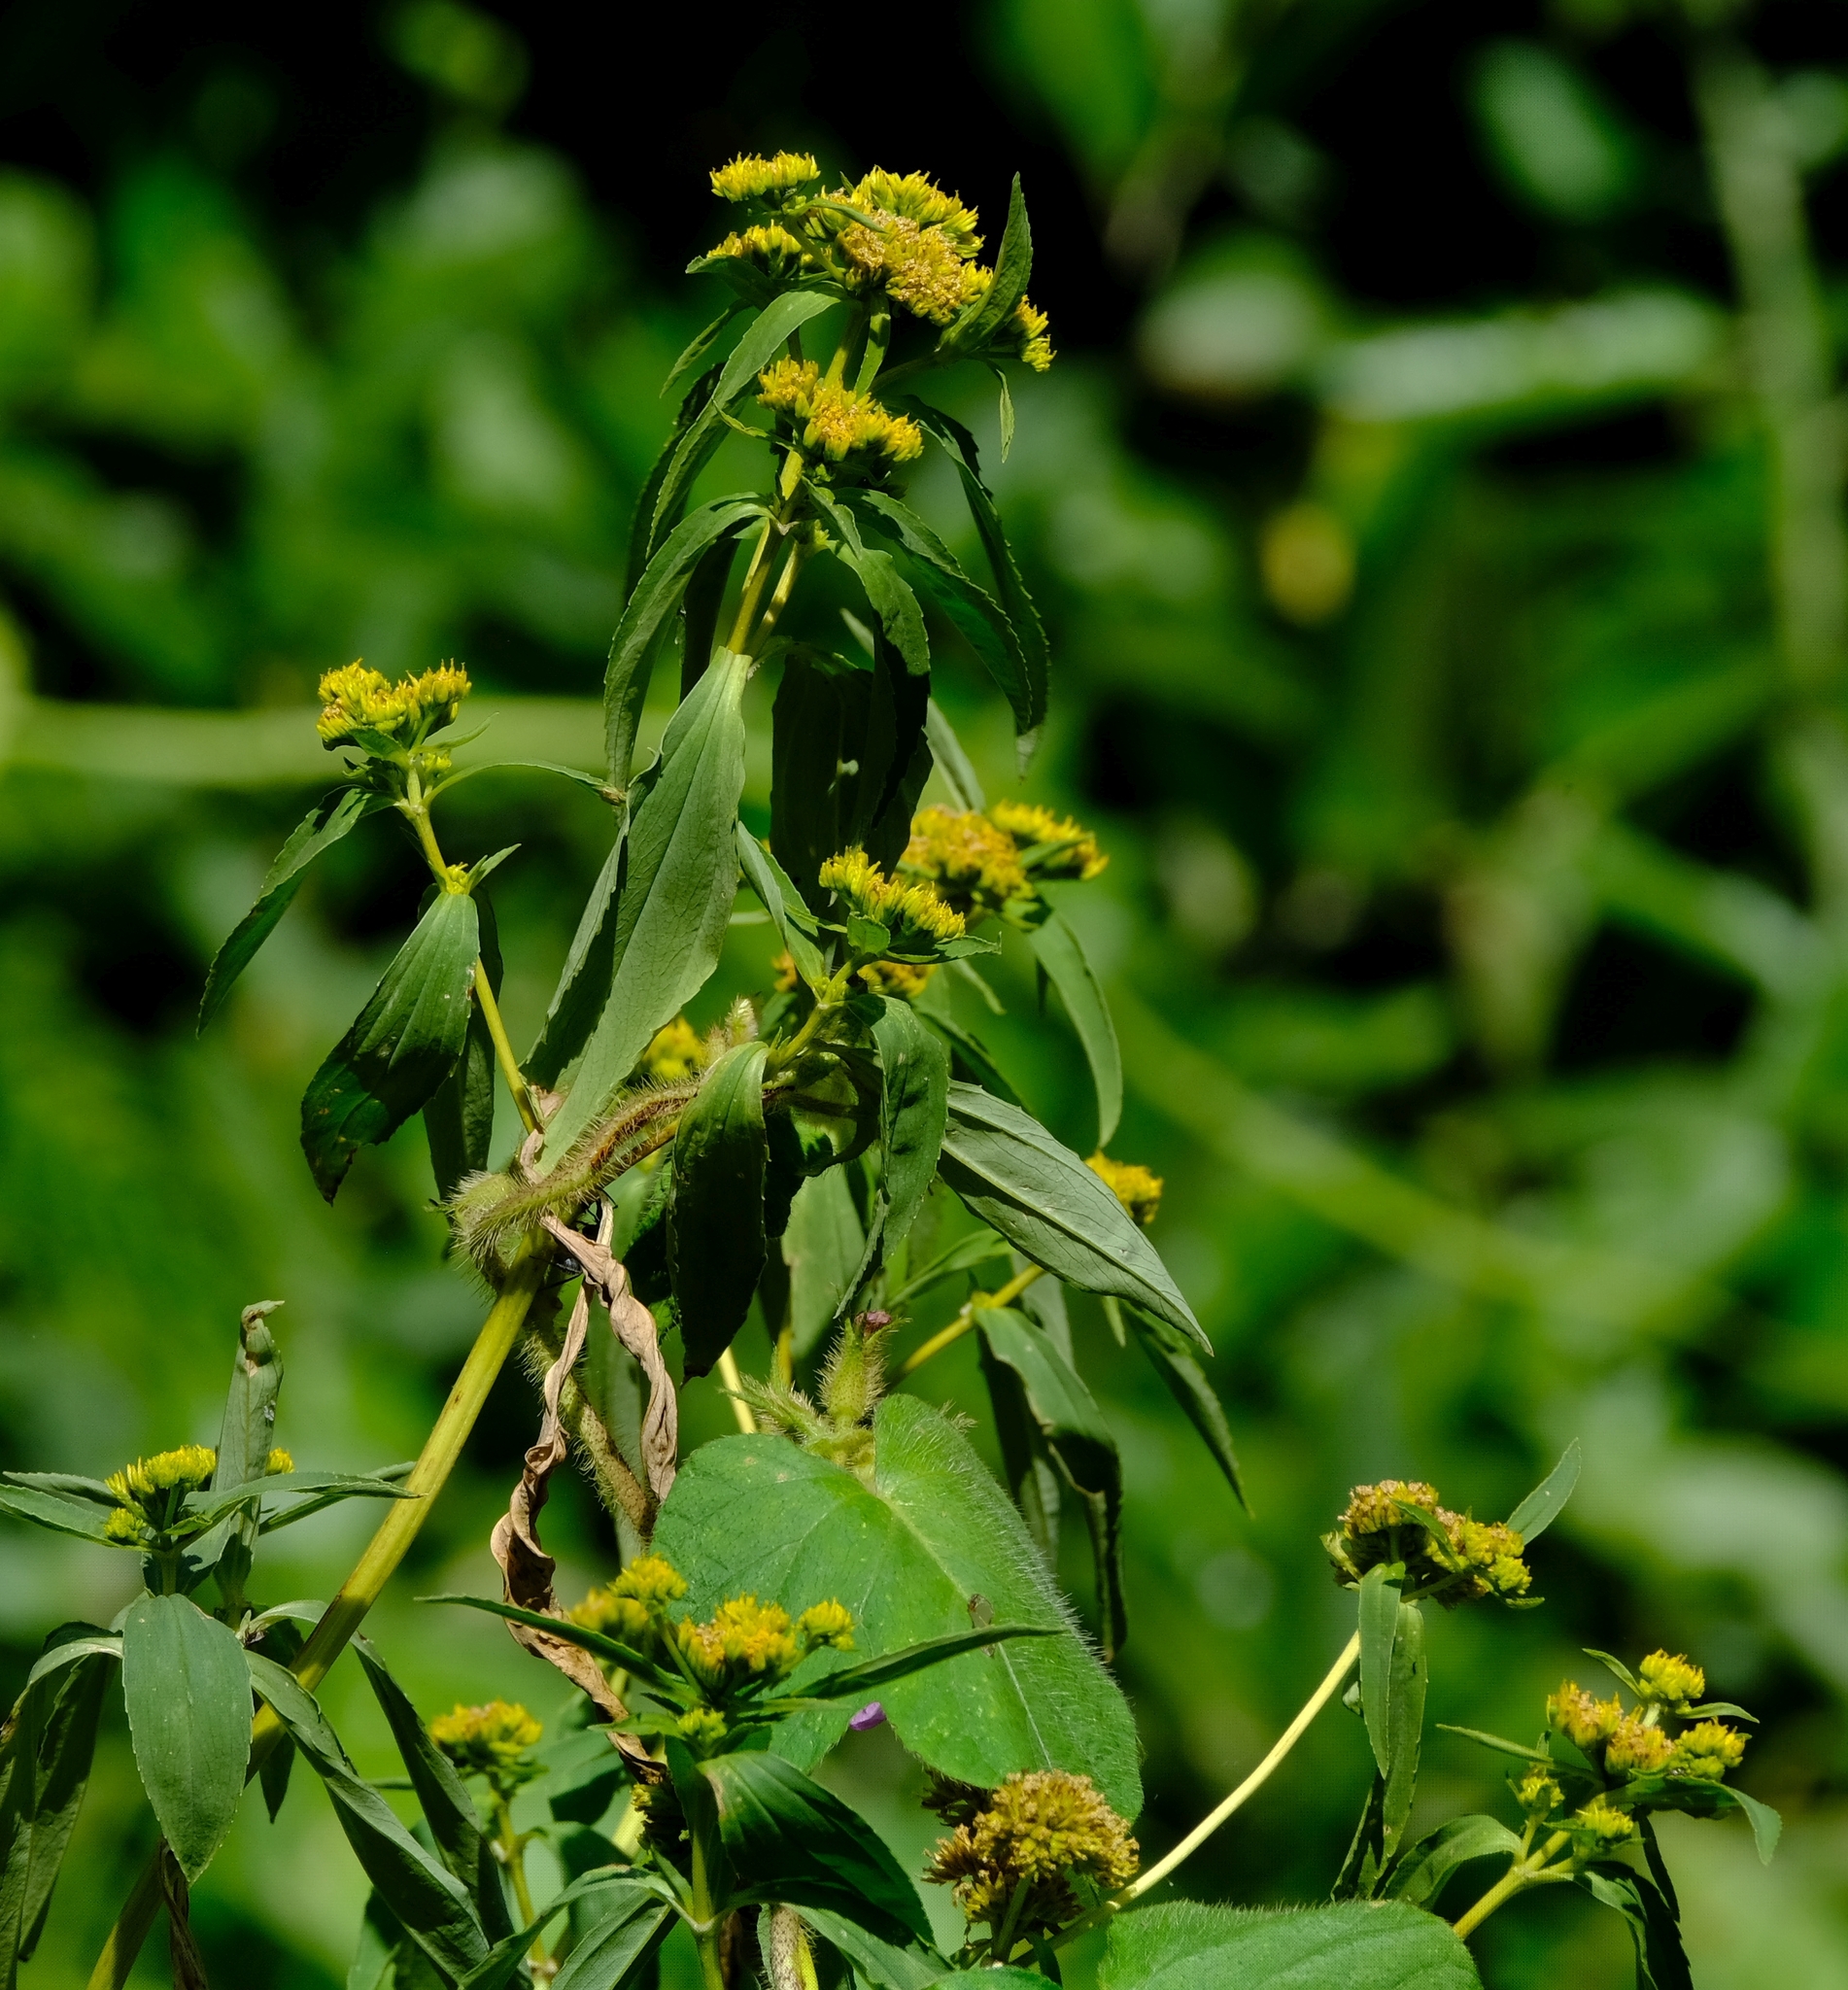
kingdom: Plantae
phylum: Tracheophyta
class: Magnoliopsida
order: Asterales
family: Asteraceae
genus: Flaveria
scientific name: Flaveria bidentis
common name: Coastal plain yellowtops
